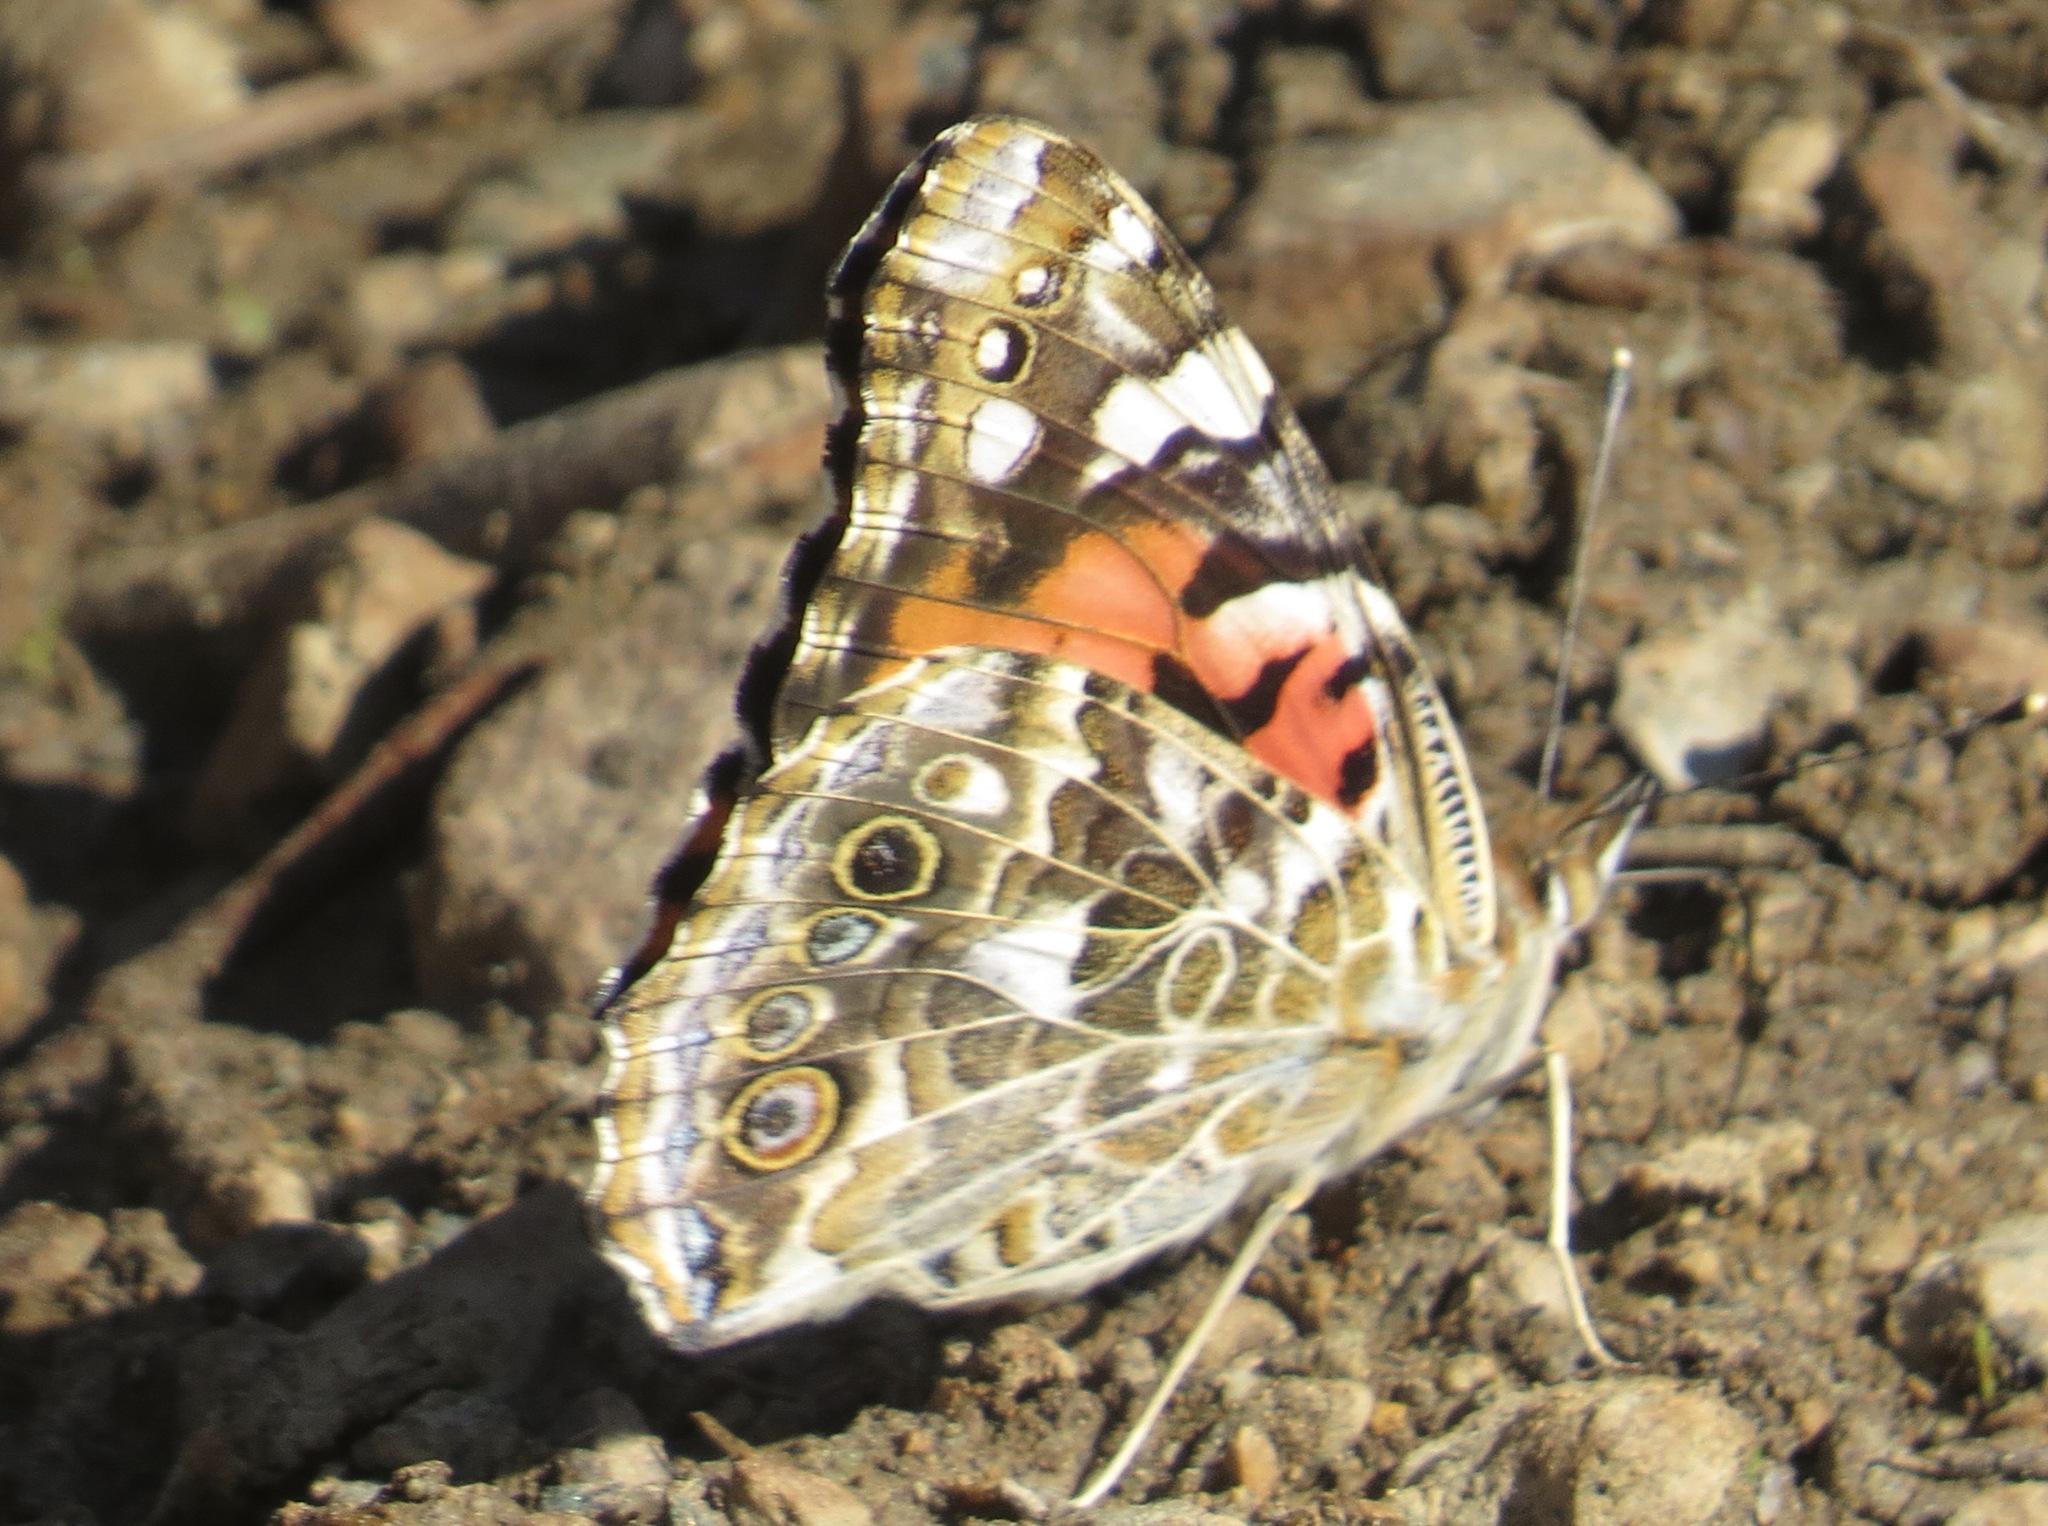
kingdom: Animalia
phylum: Arthropoda
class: Insecta
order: Lepidoptera
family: Nymphalidae
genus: Vanessa
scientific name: Vanessa cardui
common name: Painted lady
